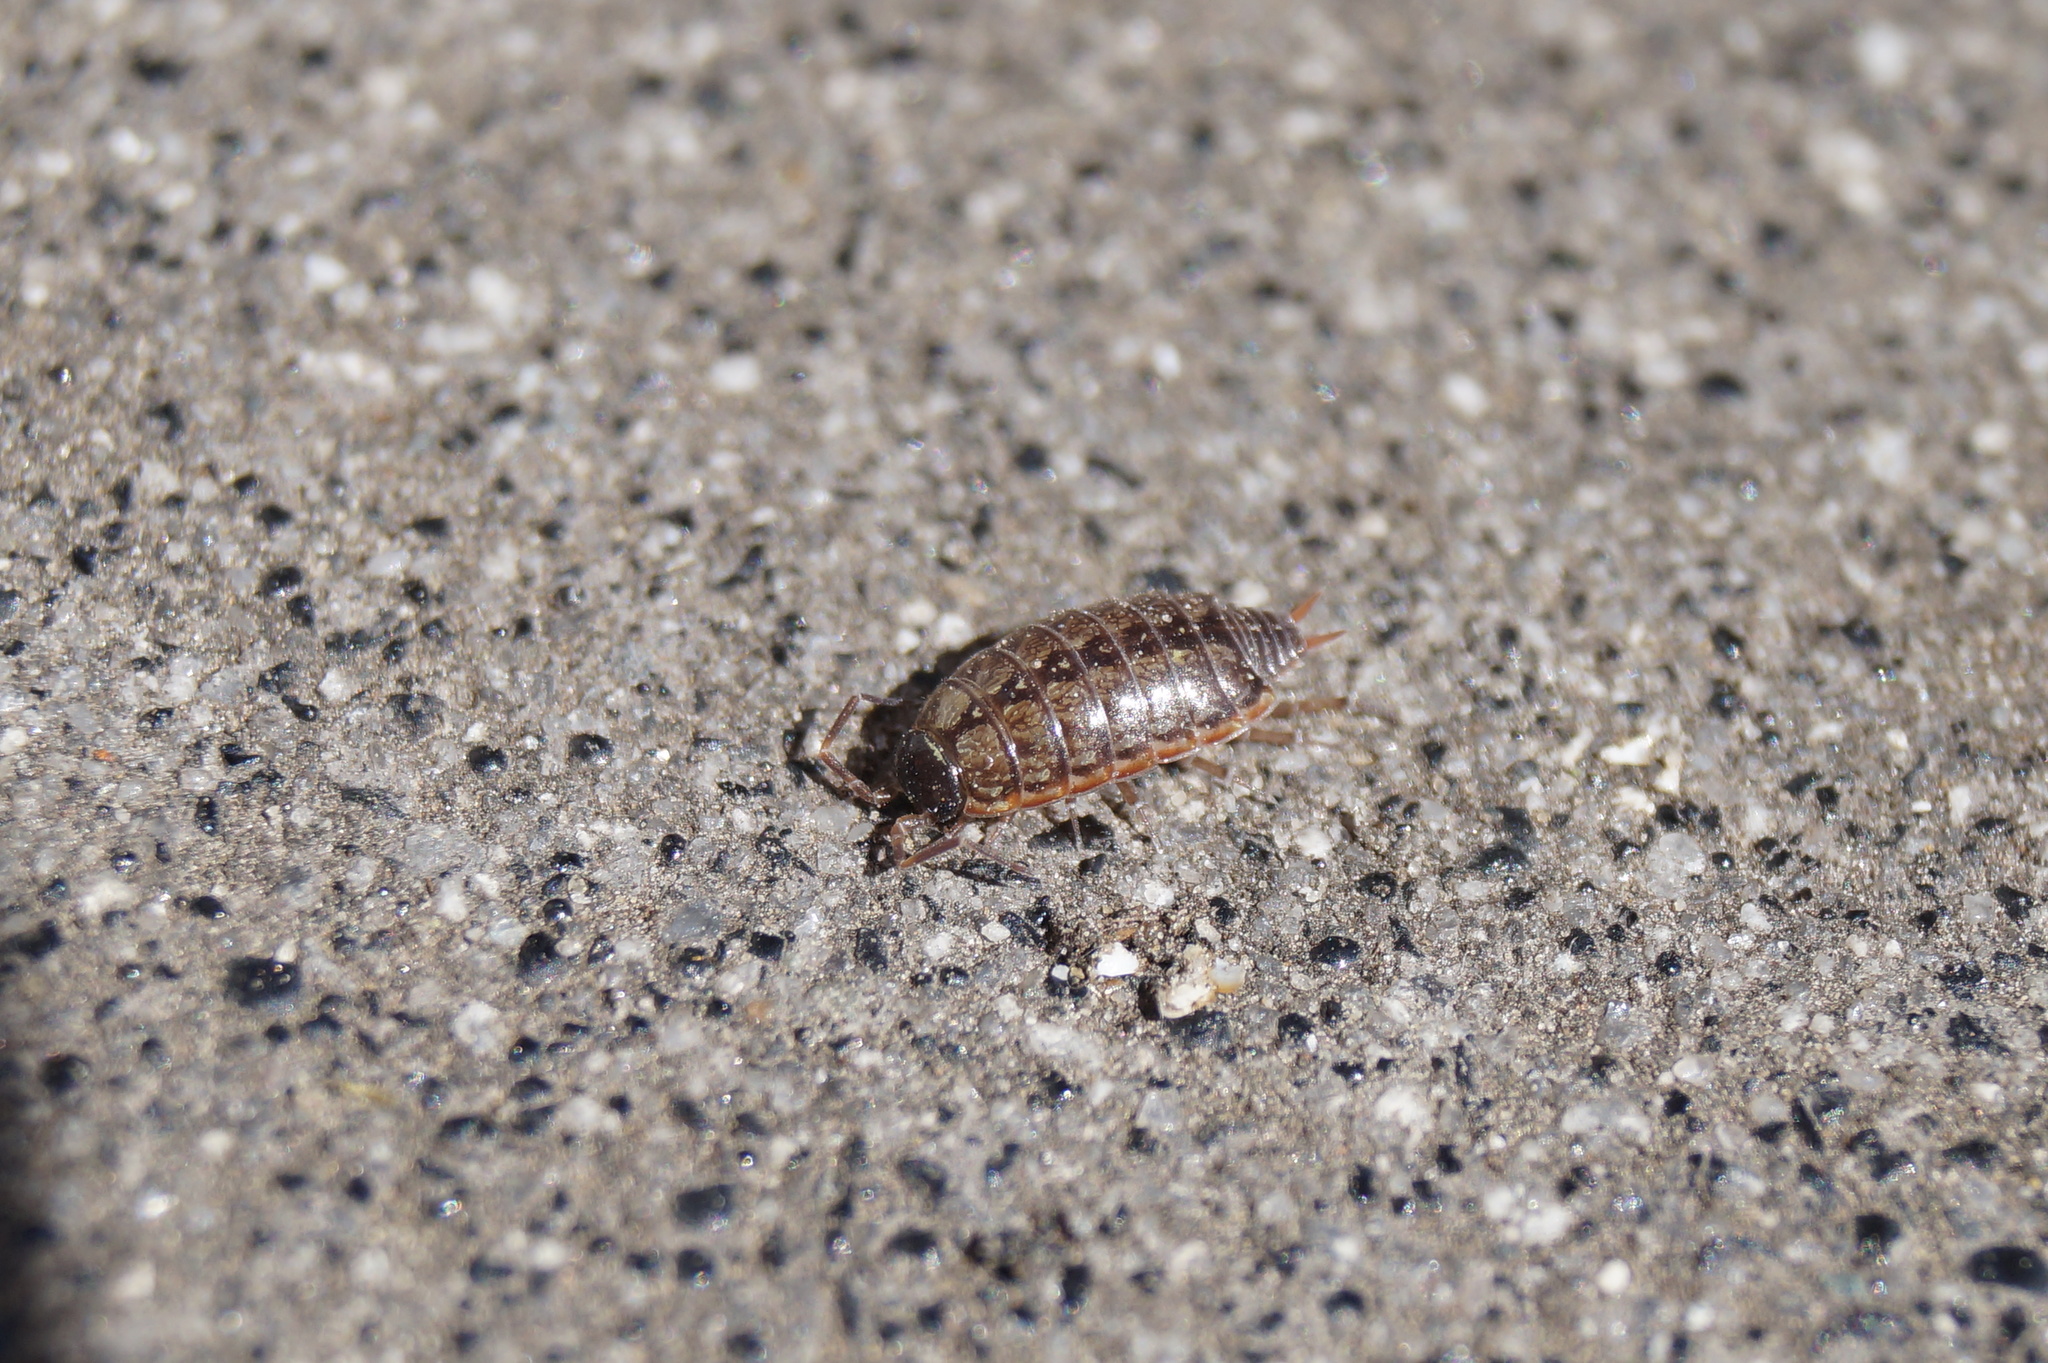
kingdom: Animalia
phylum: Arthropoda
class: Malacostraca
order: Isopoda
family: Philosciidae
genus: Philoscia
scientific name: Philoscia muscorum
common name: Common striped woodlouse
